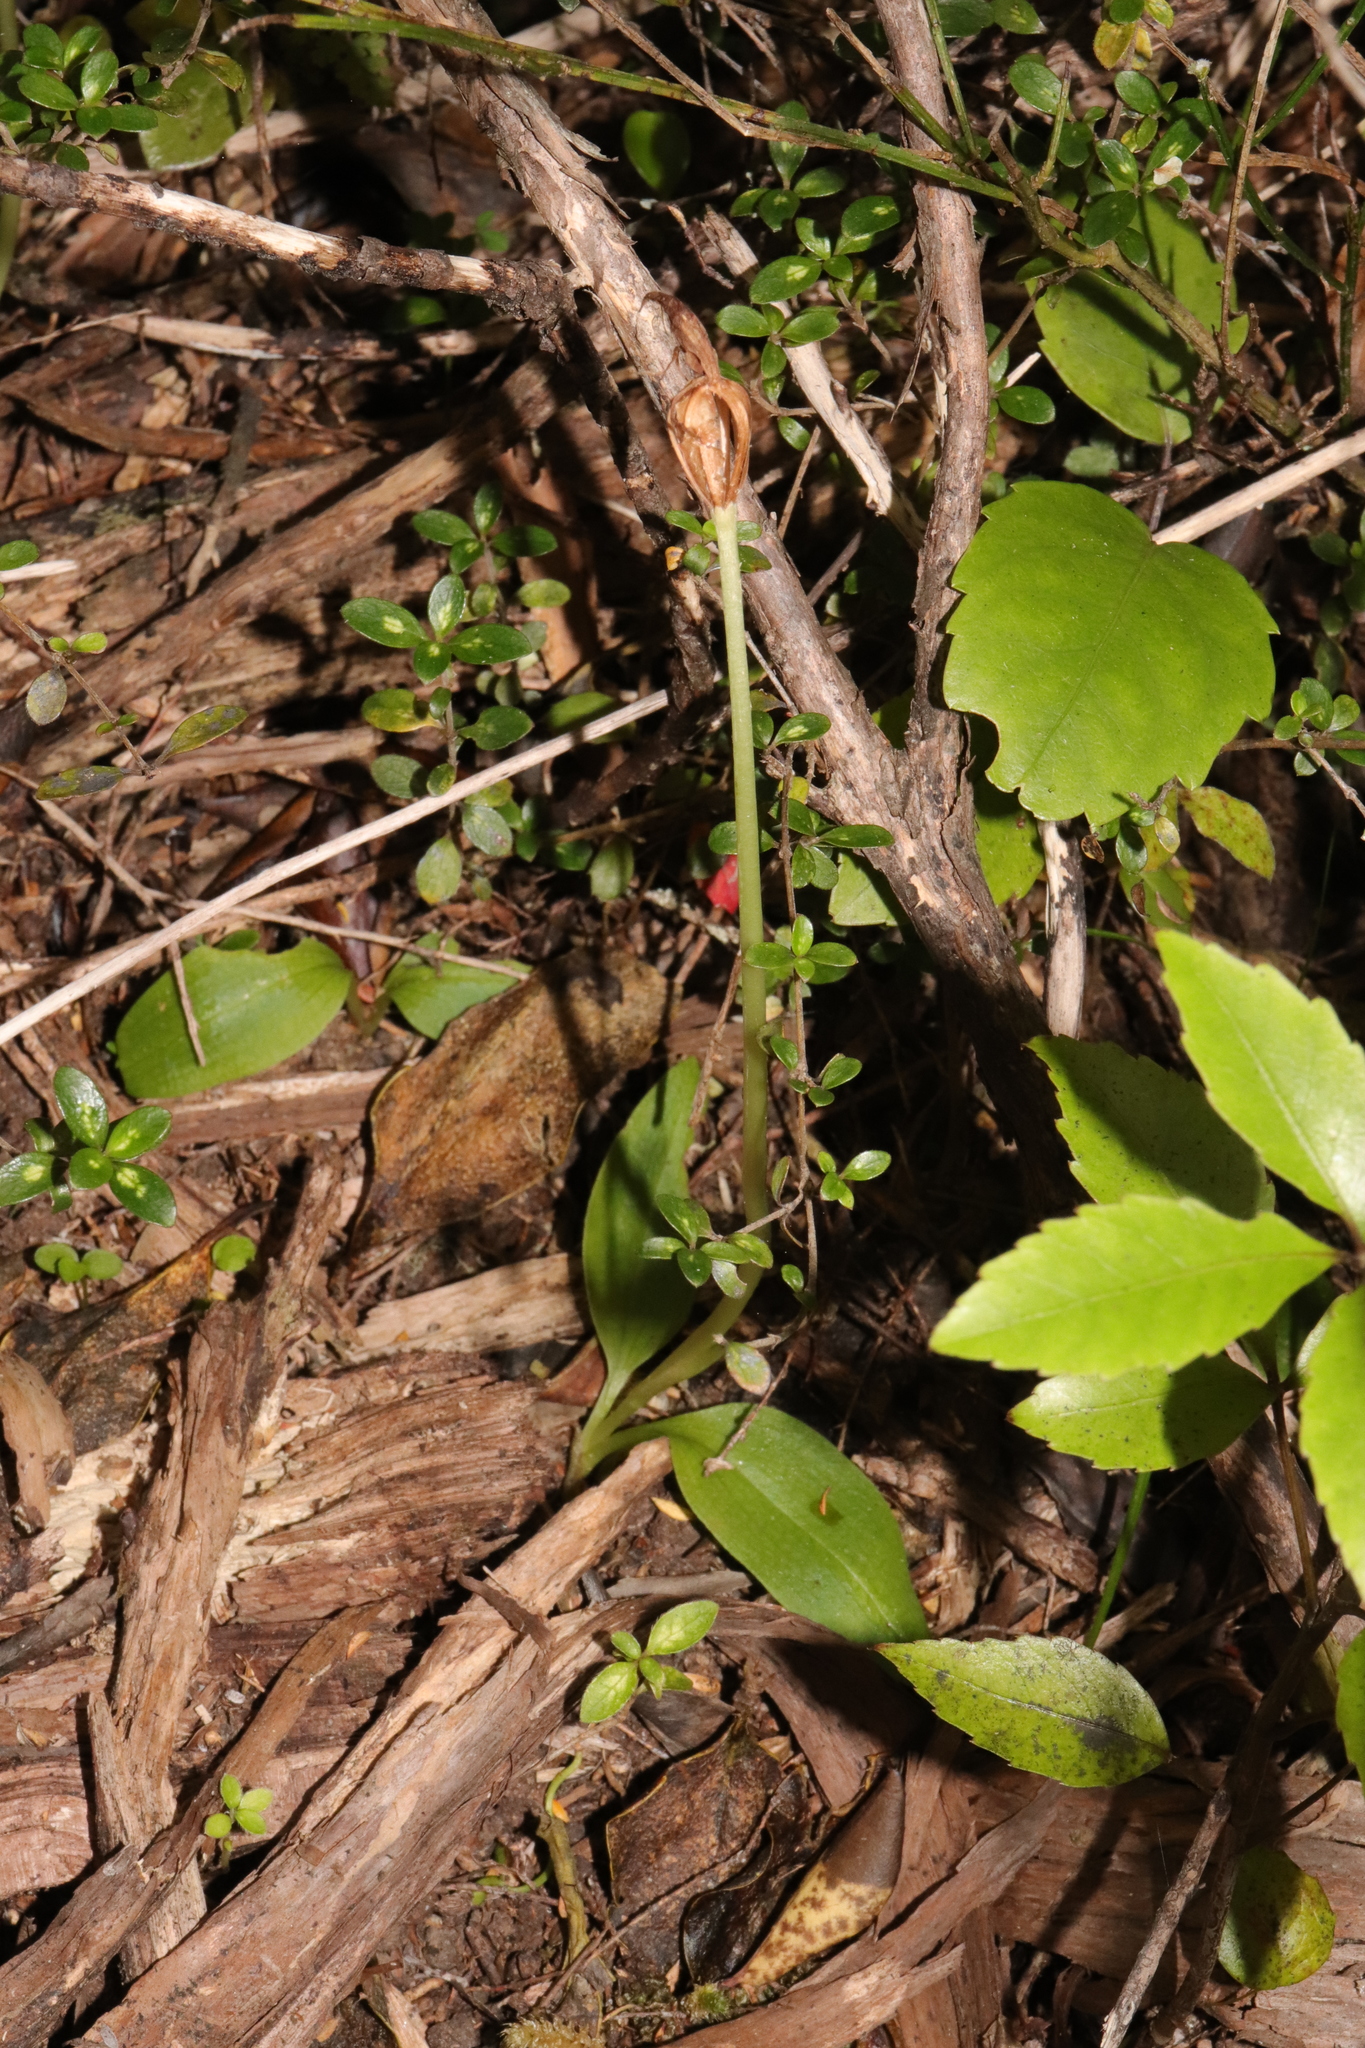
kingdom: Plantae
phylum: Tracheophyta
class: Liliopsida
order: Asparagales
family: Orchidaceae
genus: Chiloglottis
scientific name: Chiloglottis cornuta
